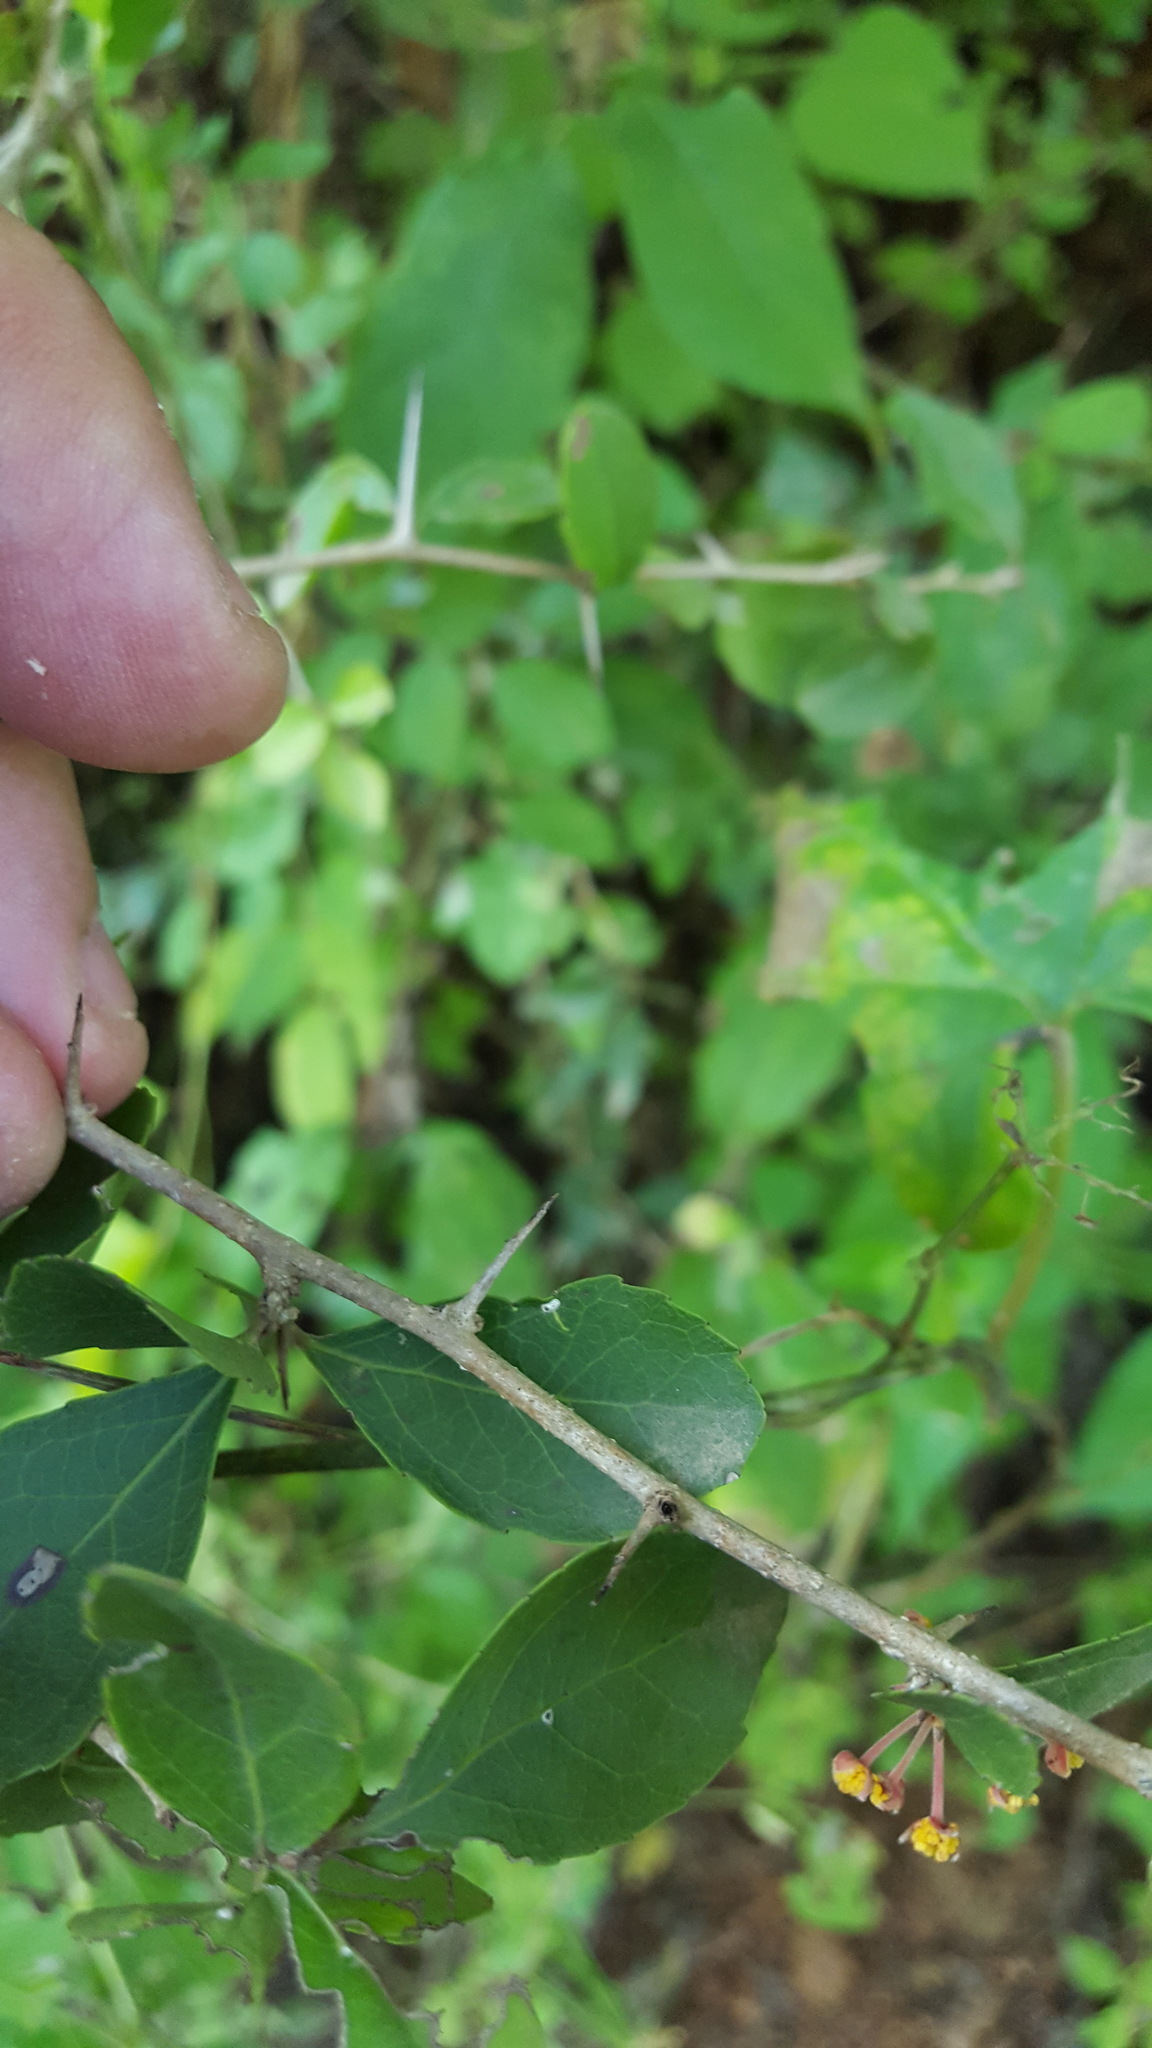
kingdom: Plantae
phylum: Tracheophyta
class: Magnoliopsida
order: Malpighiales
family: Salicaceae
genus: Xylosma
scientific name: Xylosma flexuosa
